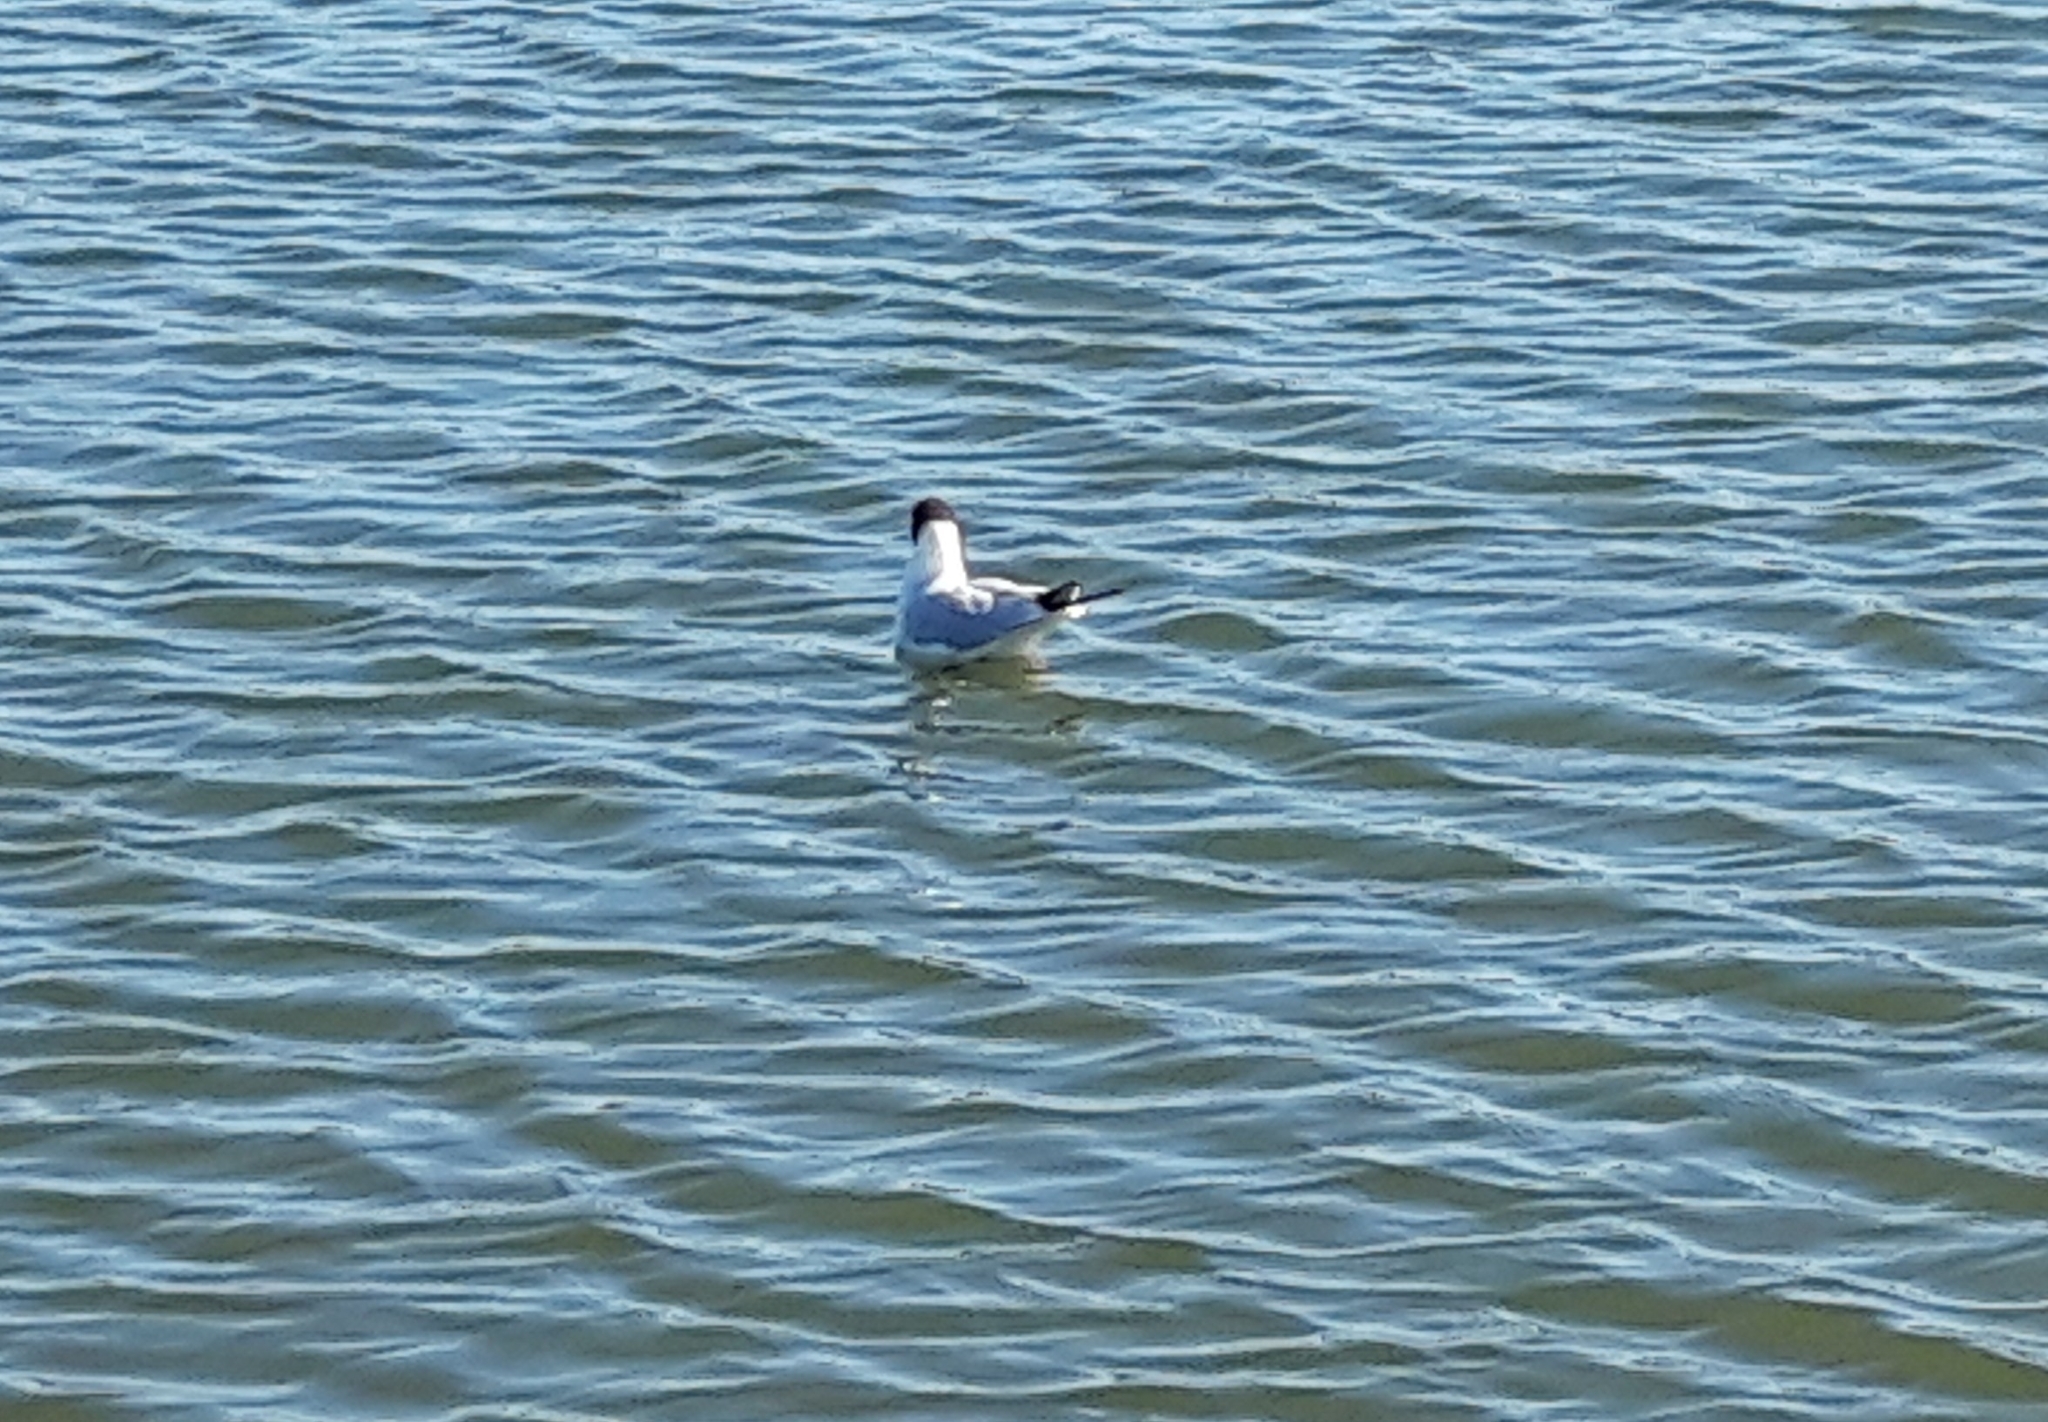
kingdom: Animalia
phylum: Chordata
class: Aves
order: Charadriiformes
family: Laridae
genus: Chroicocephalus
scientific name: Chroicocephalus ridibundus
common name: Black-headed gull
